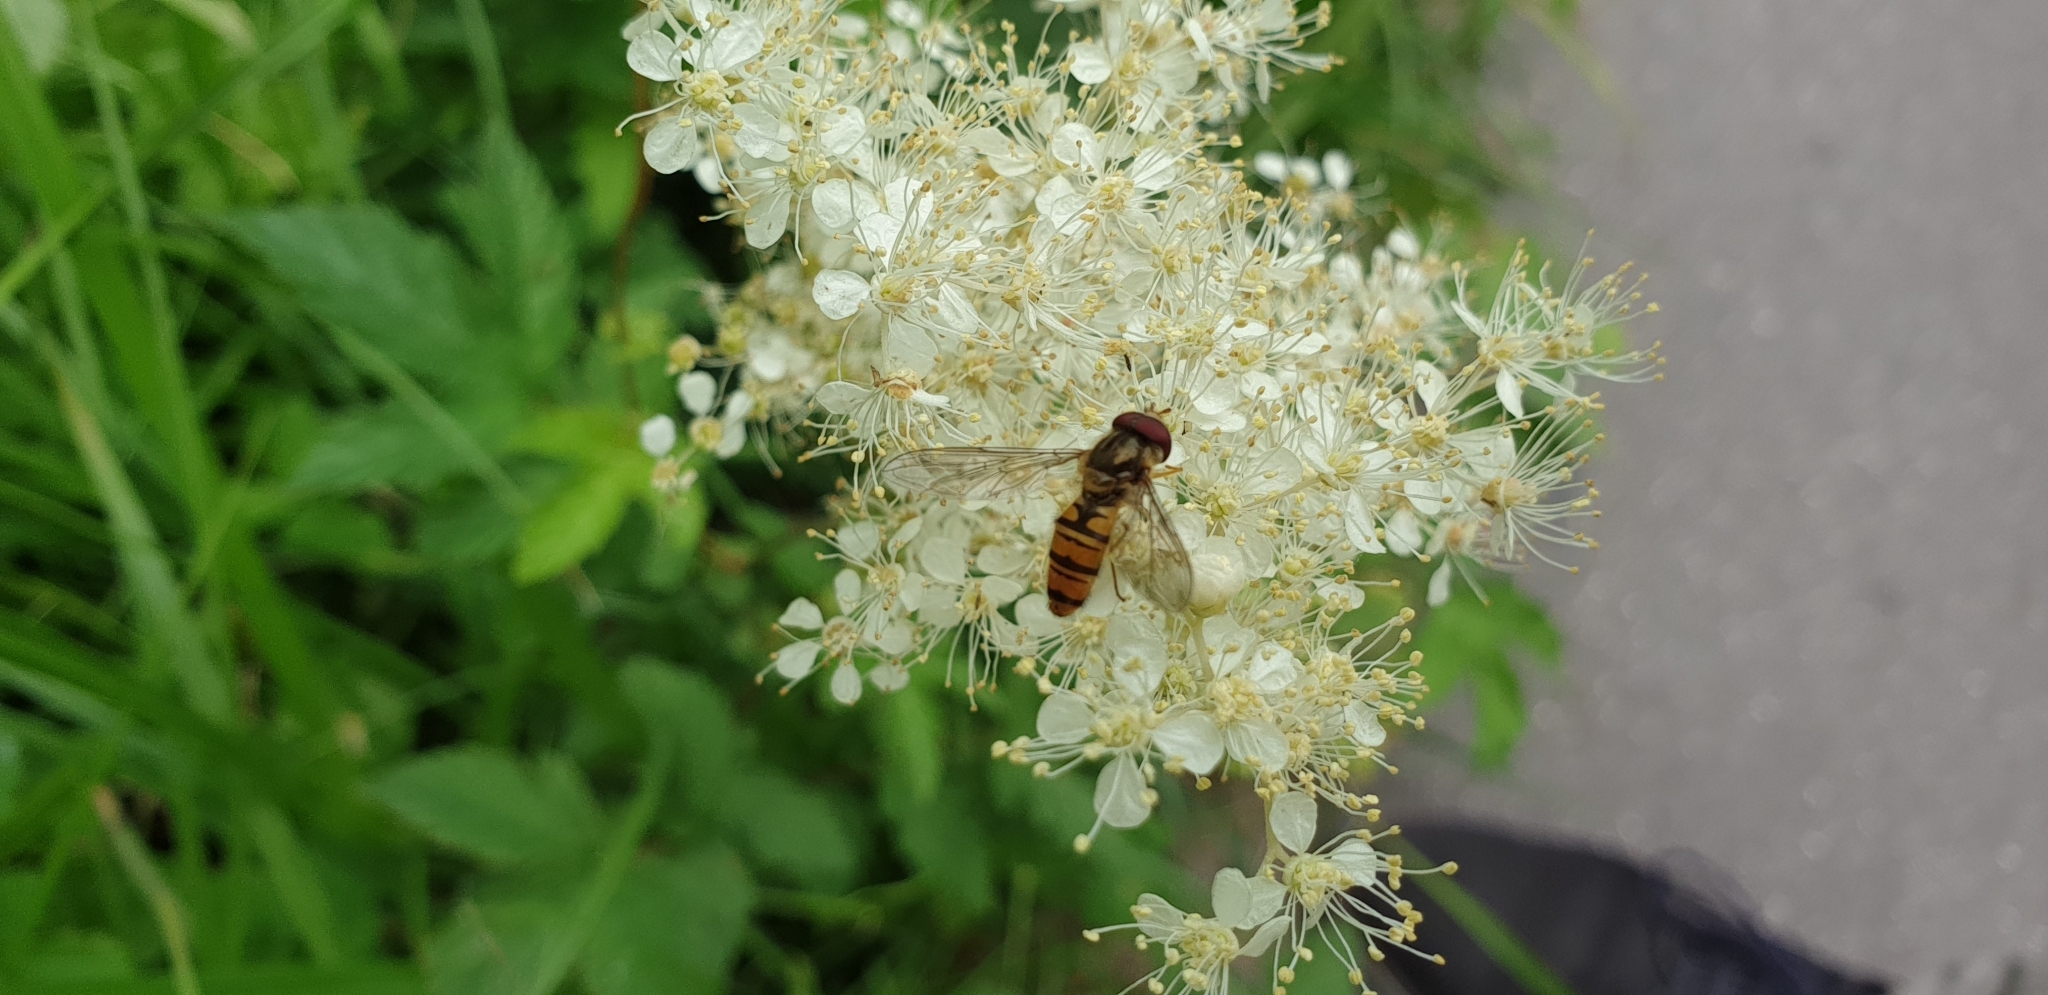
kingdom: Animalia
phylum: Arthropoda
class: Insecta
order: Diptera
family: Syrphidae
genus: Episyrphus
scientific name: Episyrphus balteatus
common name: Marmalade hoverfly
